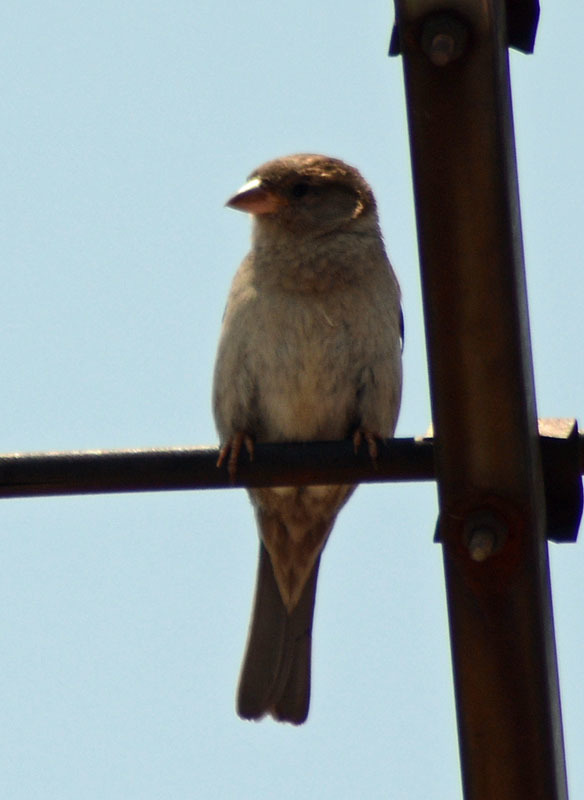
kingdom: Animalia
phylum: Chordata
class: Aves
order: Passeriformes
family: Passeridae
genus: Passer
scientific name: Passer domesticus
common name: House sparrow
